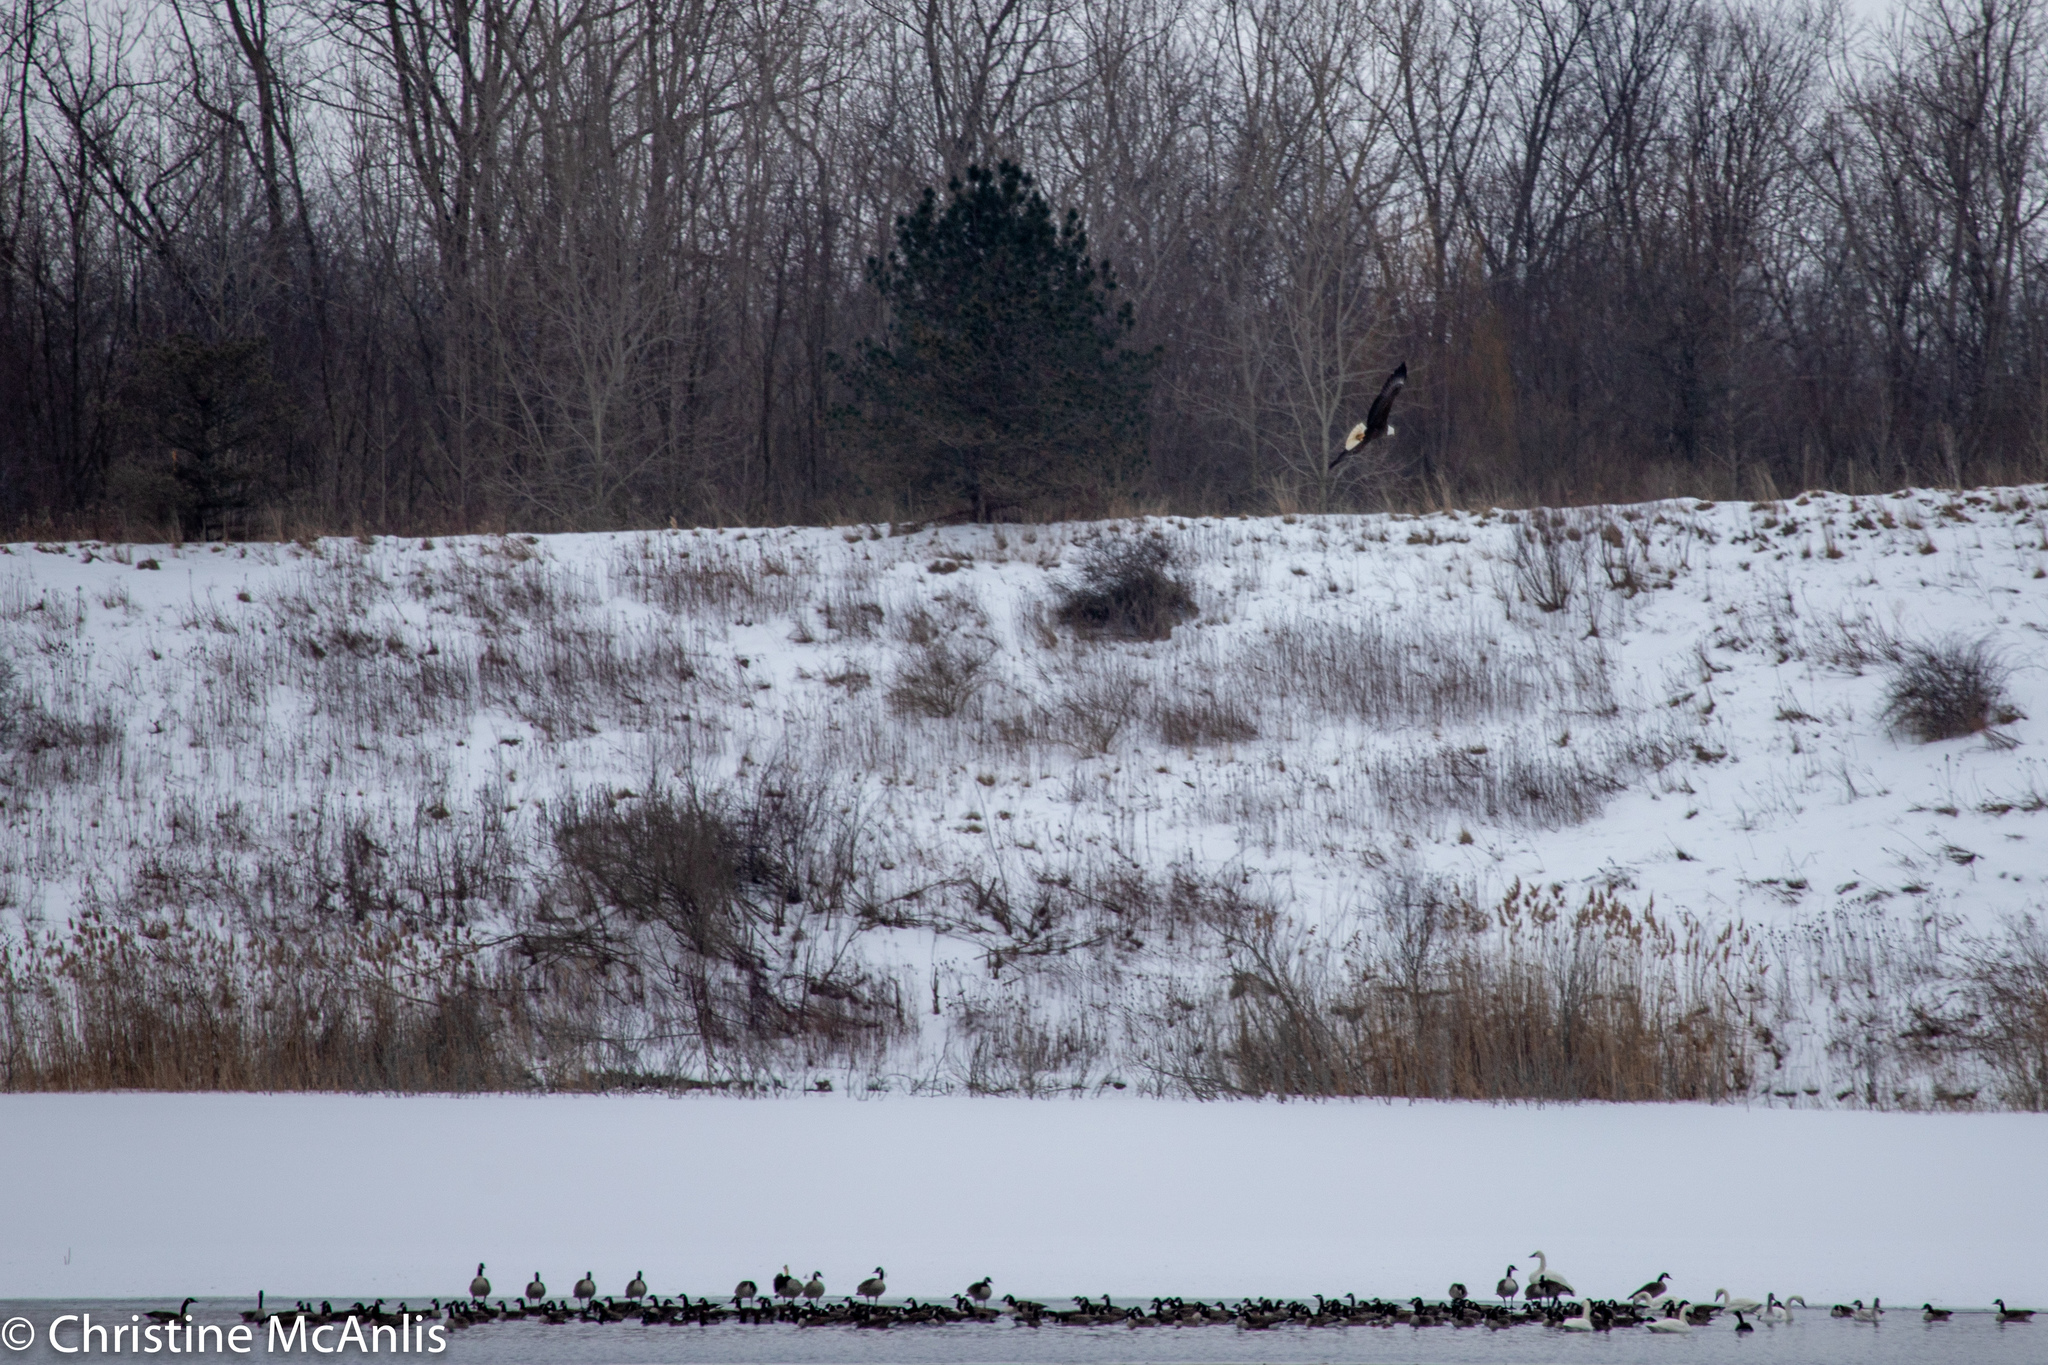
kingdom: Animalia
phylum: Chordata
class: Aves
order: Accipitriformes
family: Accipitridae
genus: Haliaeetus
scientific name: Haliaeetus leucocephalus
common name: Bald eagle
